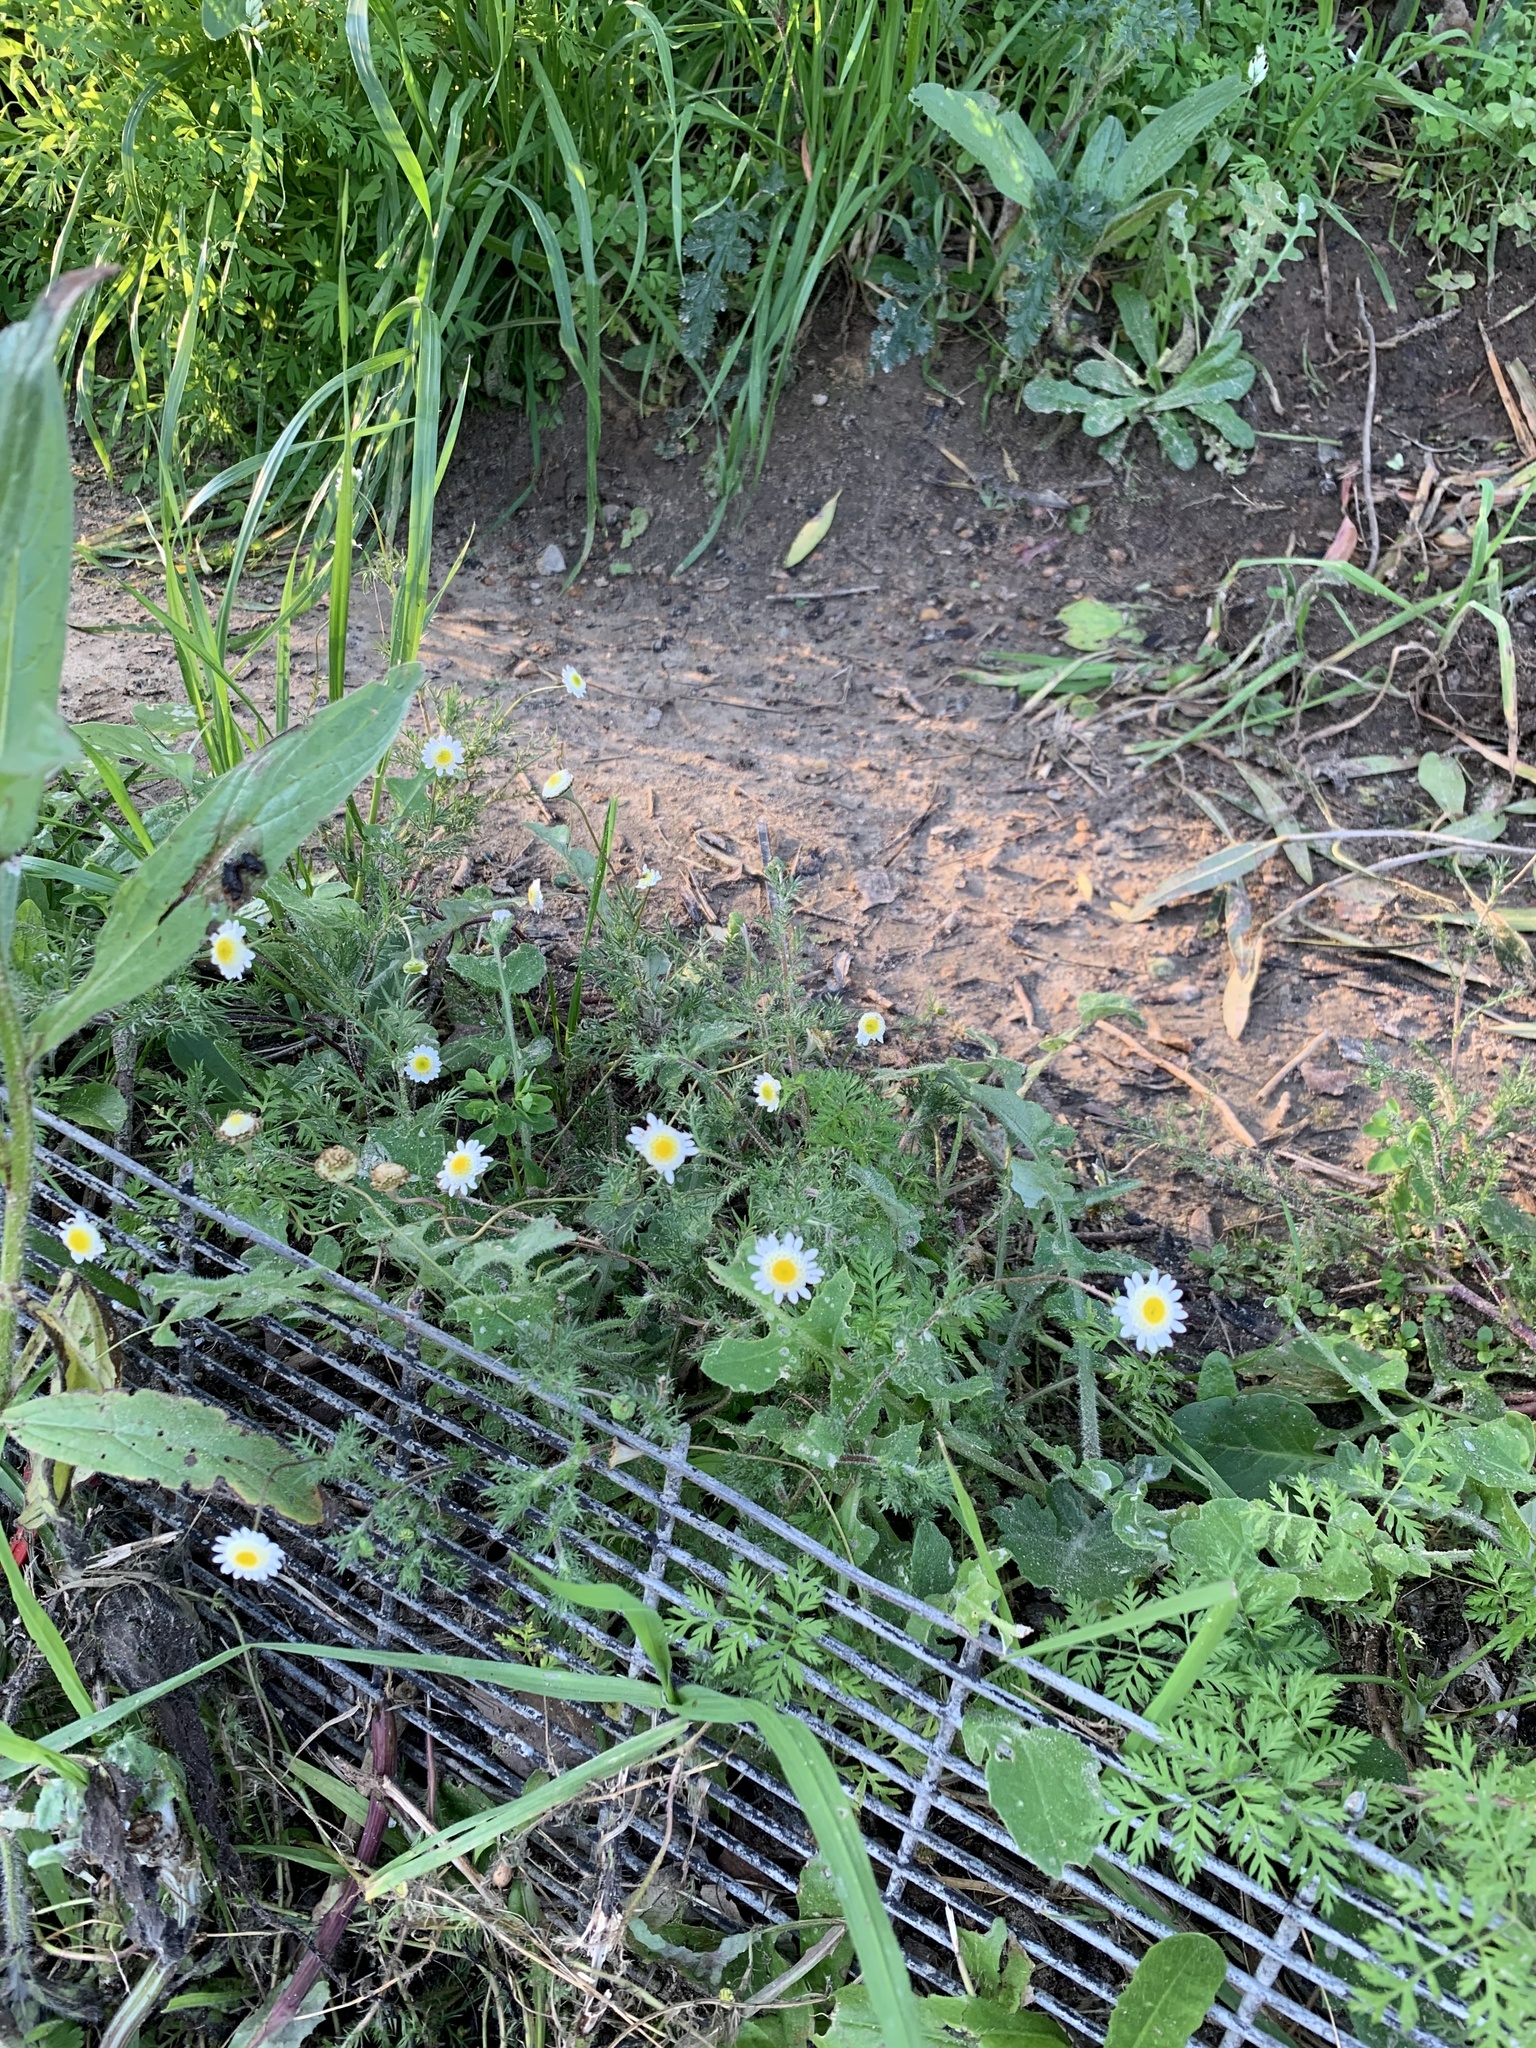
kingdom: Plantae
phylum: Tracheophyta
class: Magnoliopsida
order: Asterales
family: Asteraceae
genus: Cotula
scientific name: Cotula turbinata
